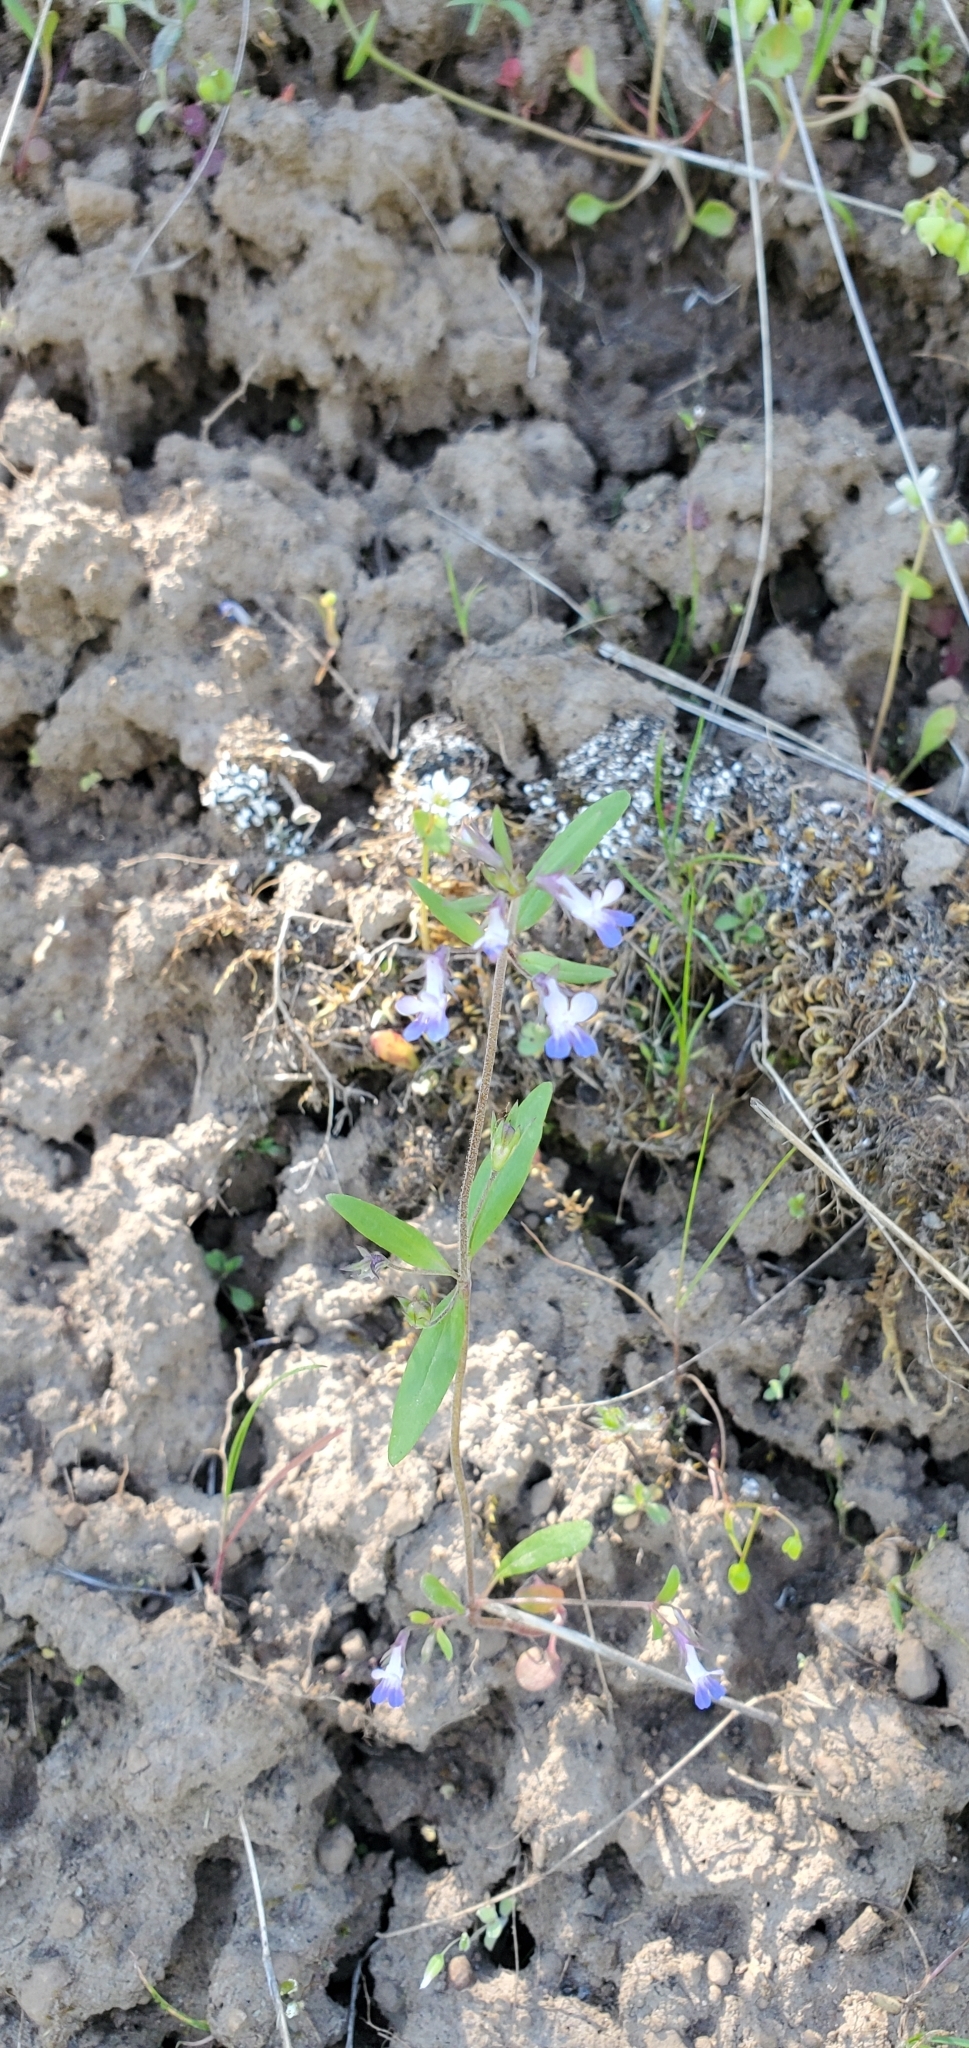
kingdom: Plantae
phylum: Tracheophyta
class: Magnoliopsida
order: Lamiales
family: Plantaginaceae
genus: Collinsia
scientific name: Collinsia parviflora
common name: Blue-lips
